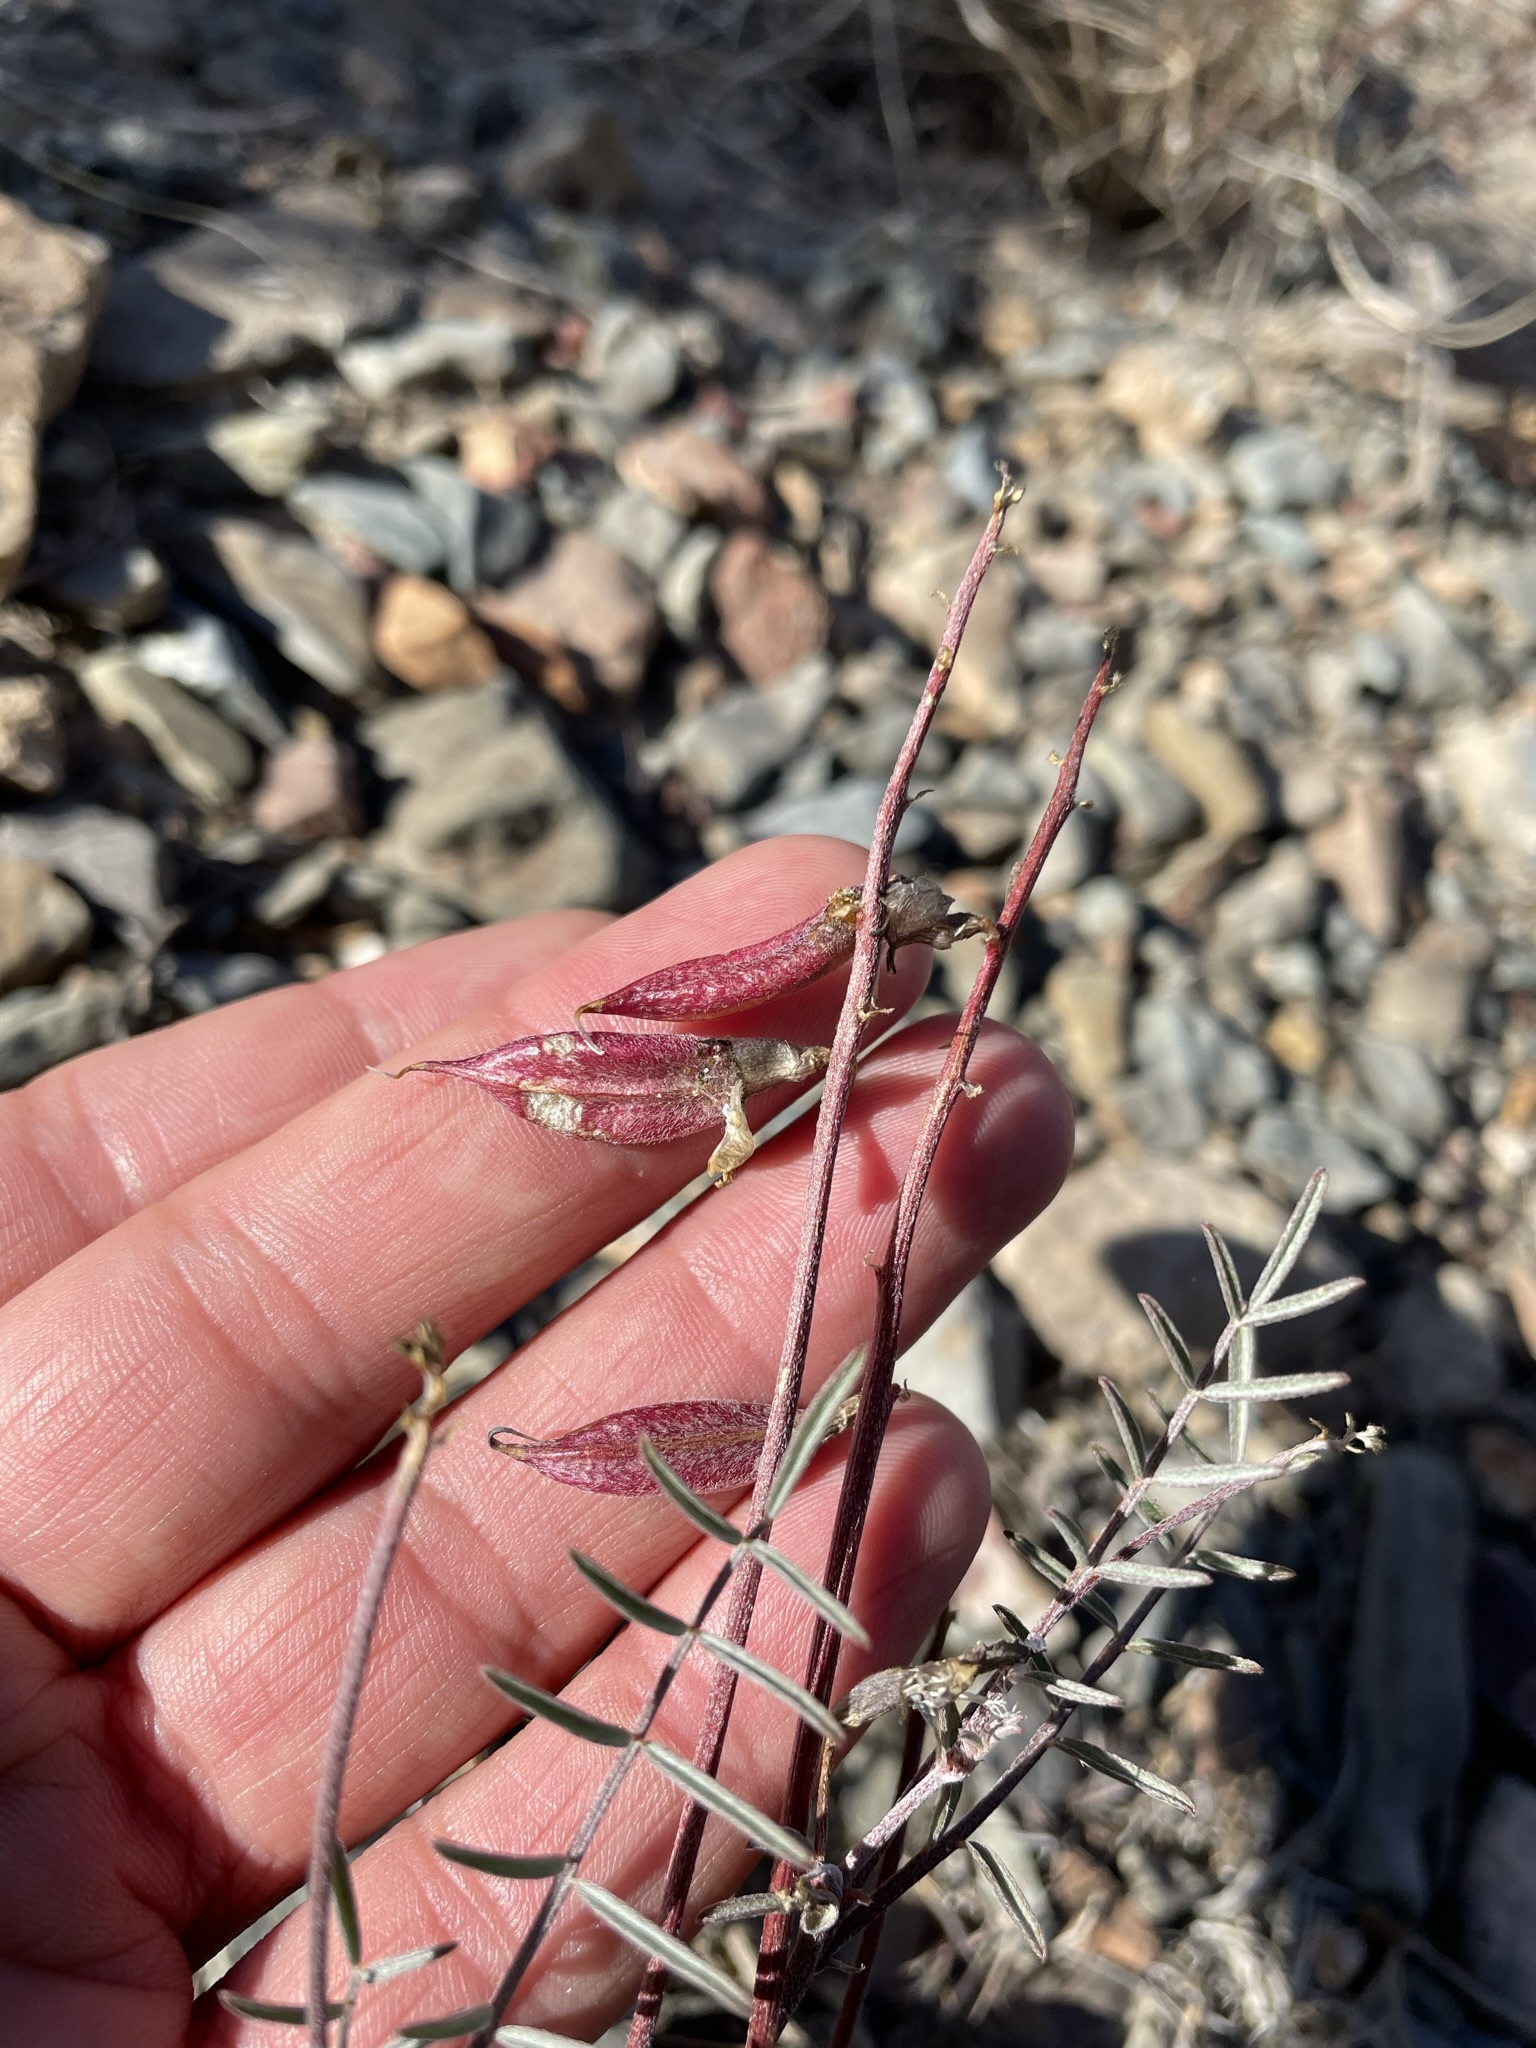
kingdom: Plantae
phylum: Tracheophyta
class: Magnoliopsida
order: Fabales
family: Fabaceae
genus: Astragalus
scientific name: Astragalus casei
